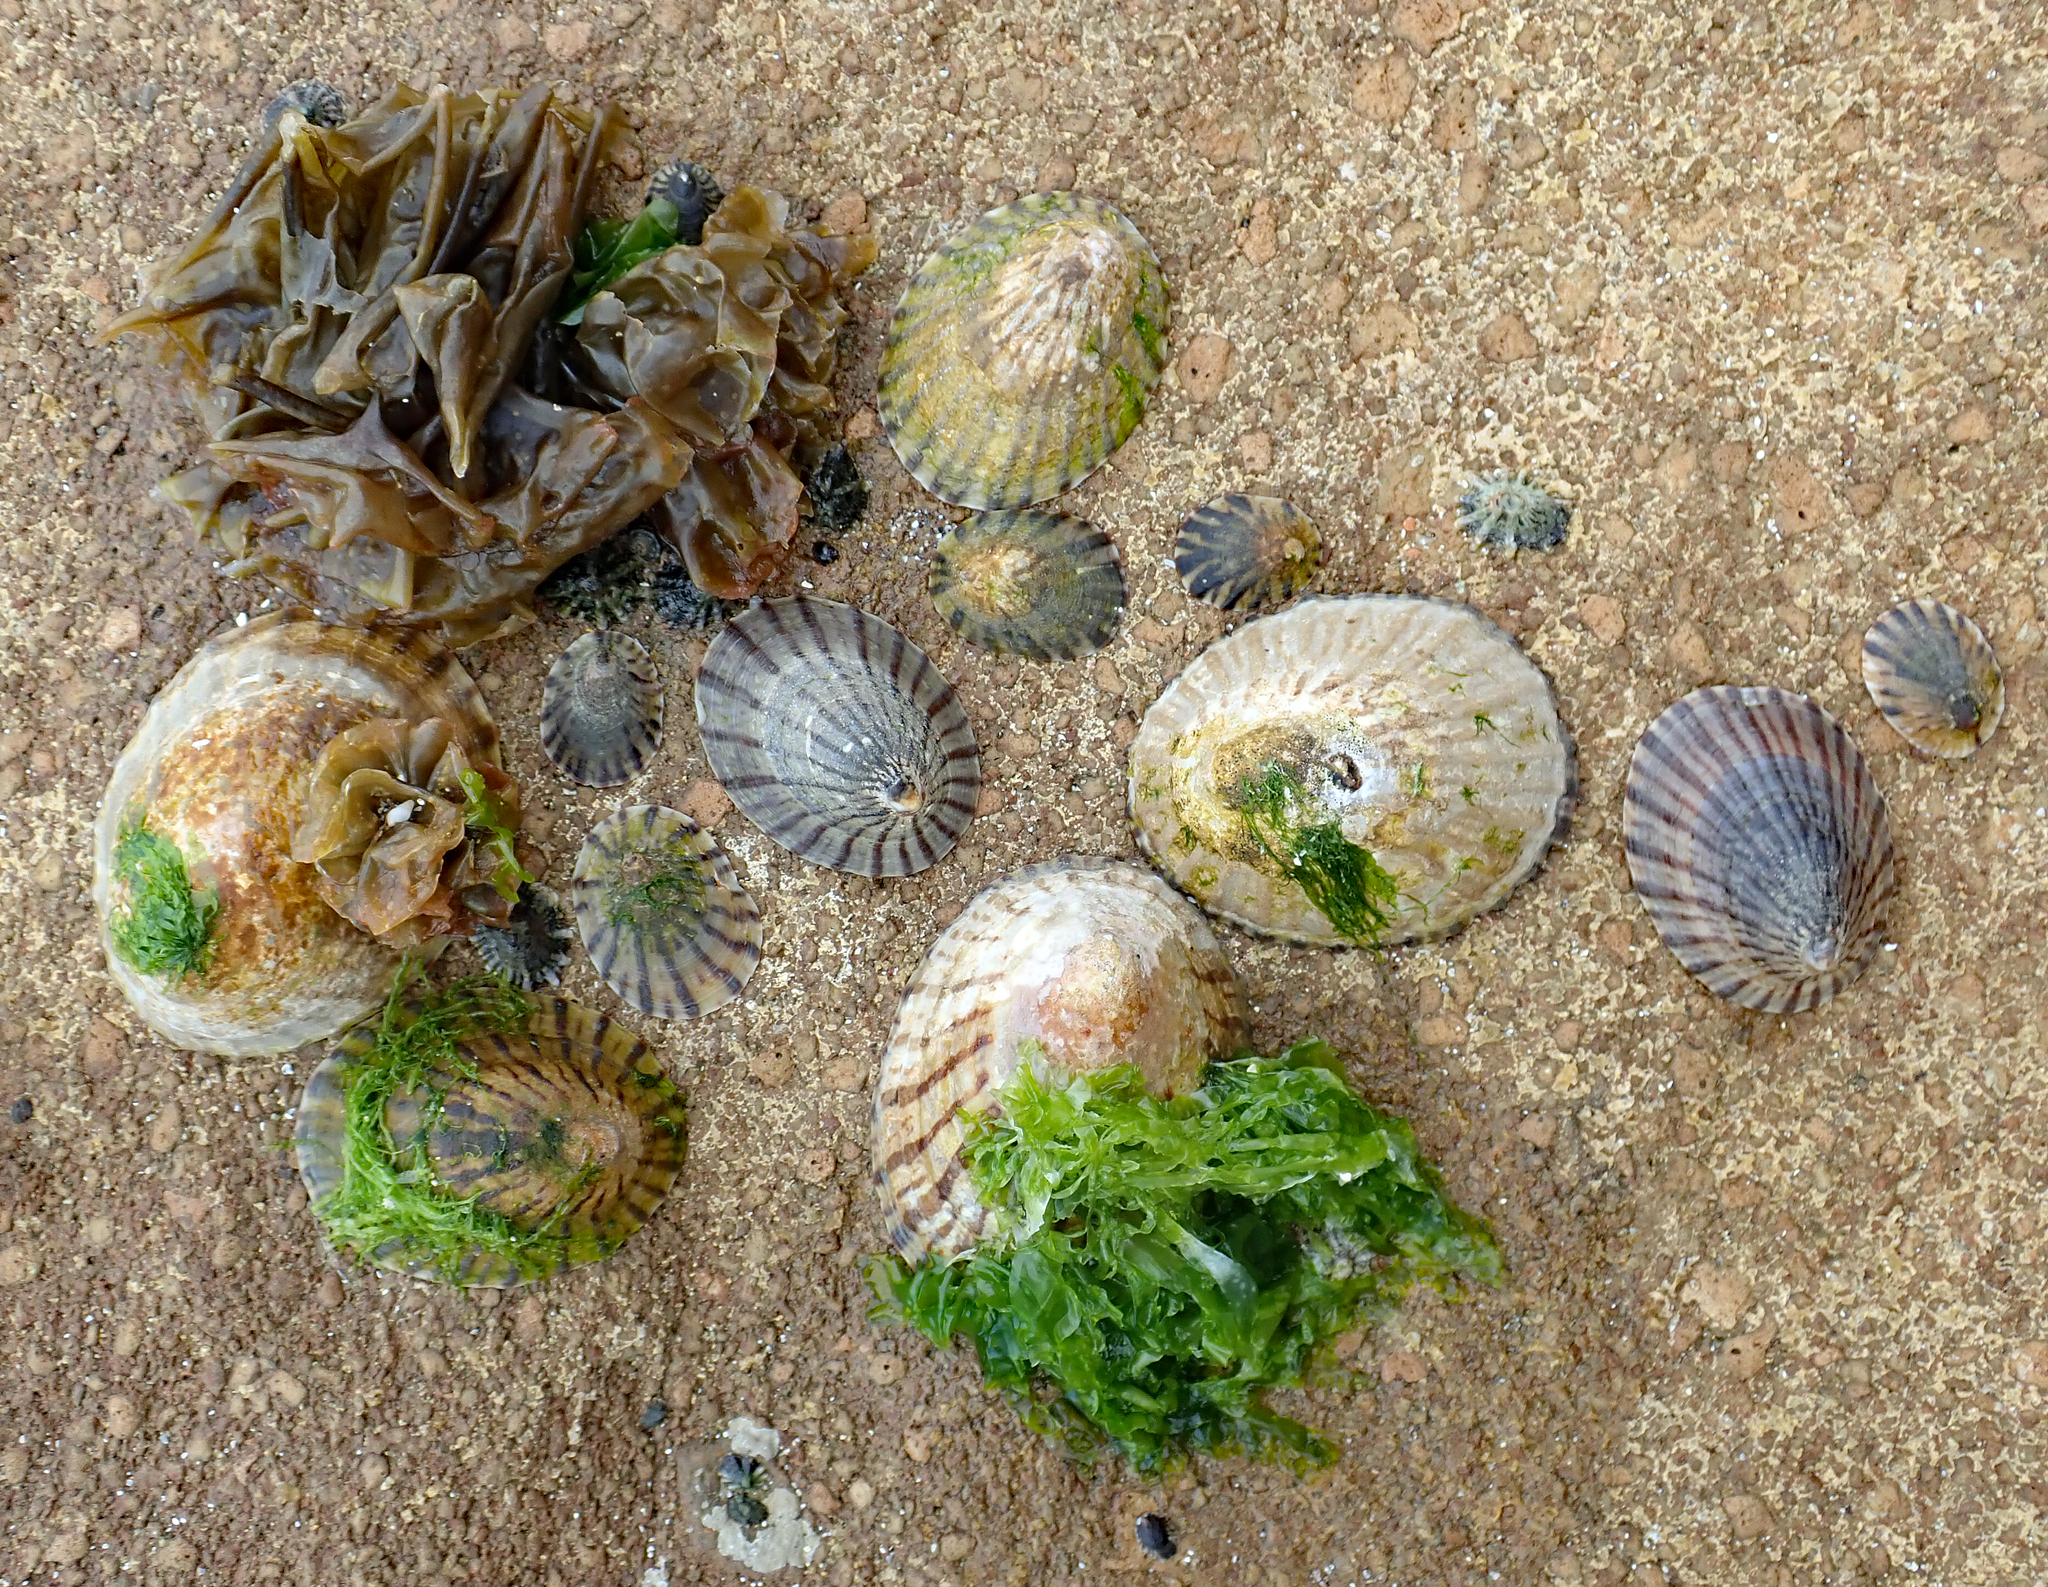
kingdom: Animalia
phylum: Mollusca
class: Gastropoda
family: Nacellidae
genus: Cellana
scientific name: Cellana oliveri
